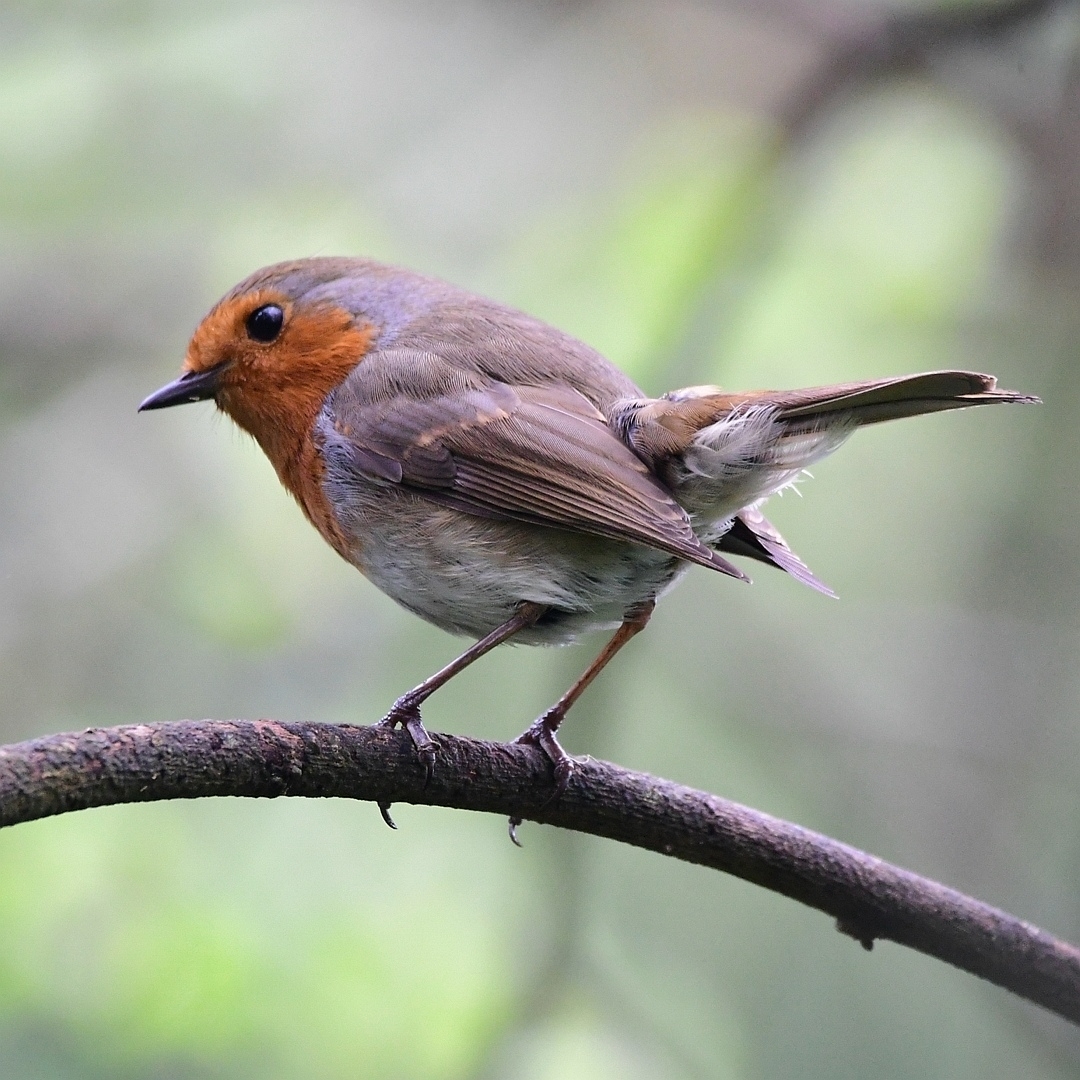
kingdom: Animalia
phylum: Chordata
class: Aves
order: Passeriformes
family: Muscicapidae
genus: Erithacus
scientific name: Erithacus rubecula
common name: European robin
